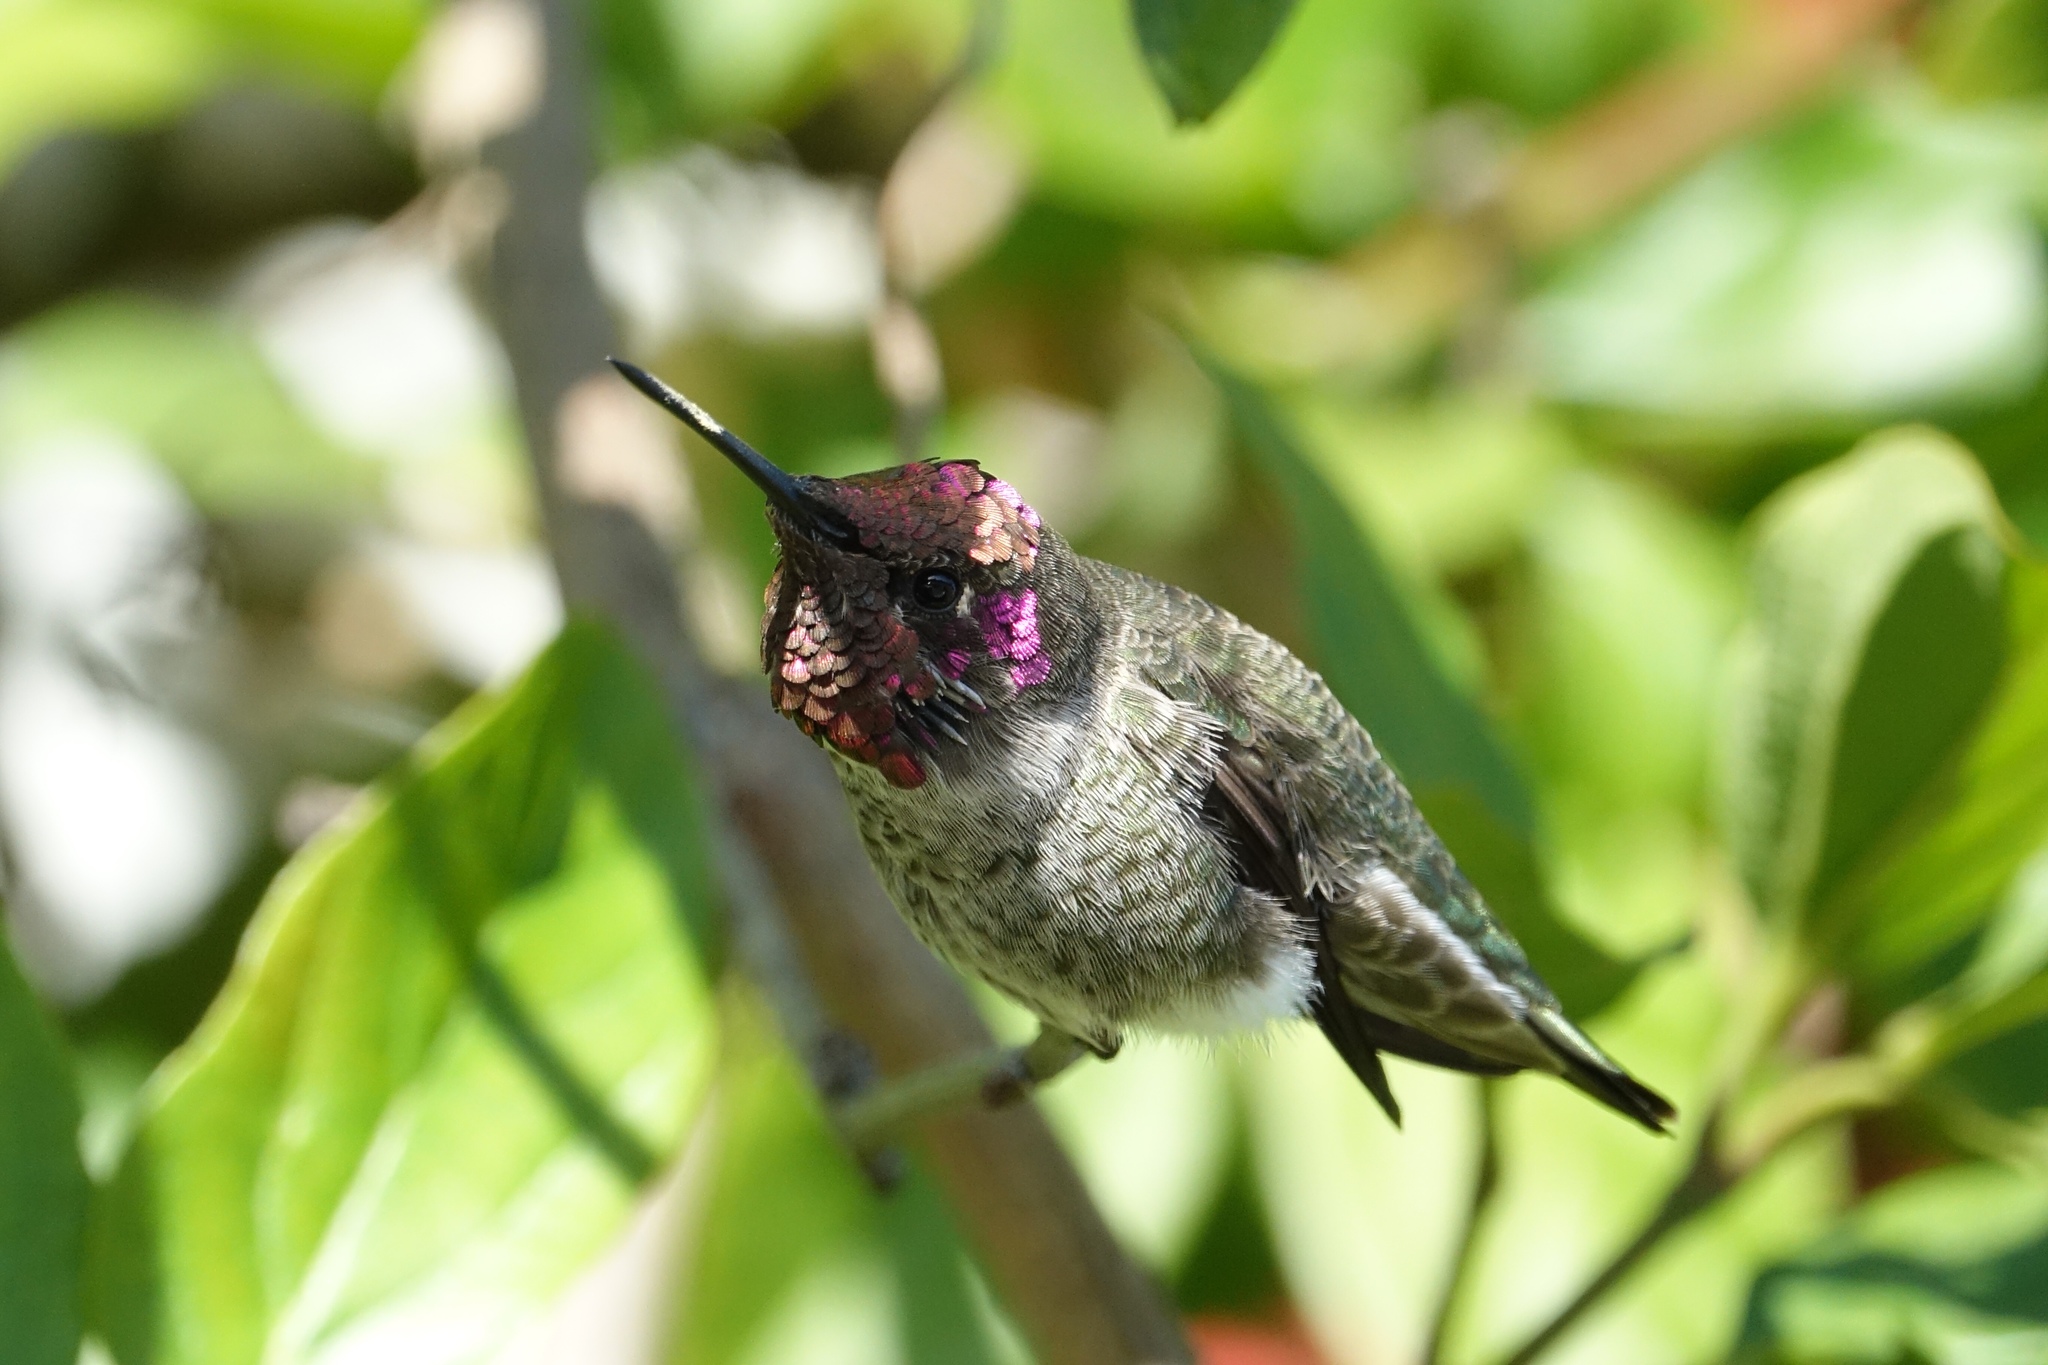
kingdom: Animalia
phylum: Chordata
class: Aves
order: Apodiformes
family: Trochilidae
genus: Calypte
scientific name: Calypte anna
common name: Anna's hummingbird
